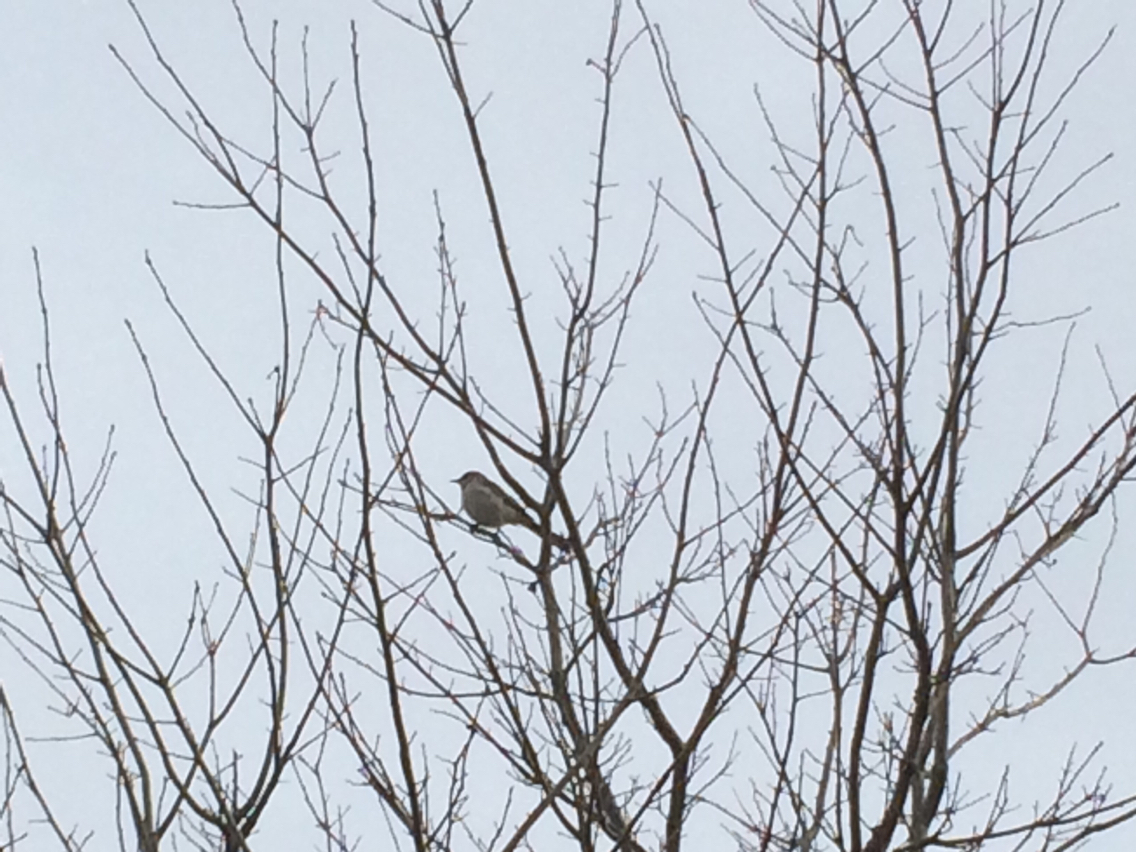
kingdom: Animalia
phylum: Chordata
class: Aves
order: Passeriformes
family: Mimidae
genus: Mimus
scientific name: Mimus polyglottos
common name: Northern mockingbird
